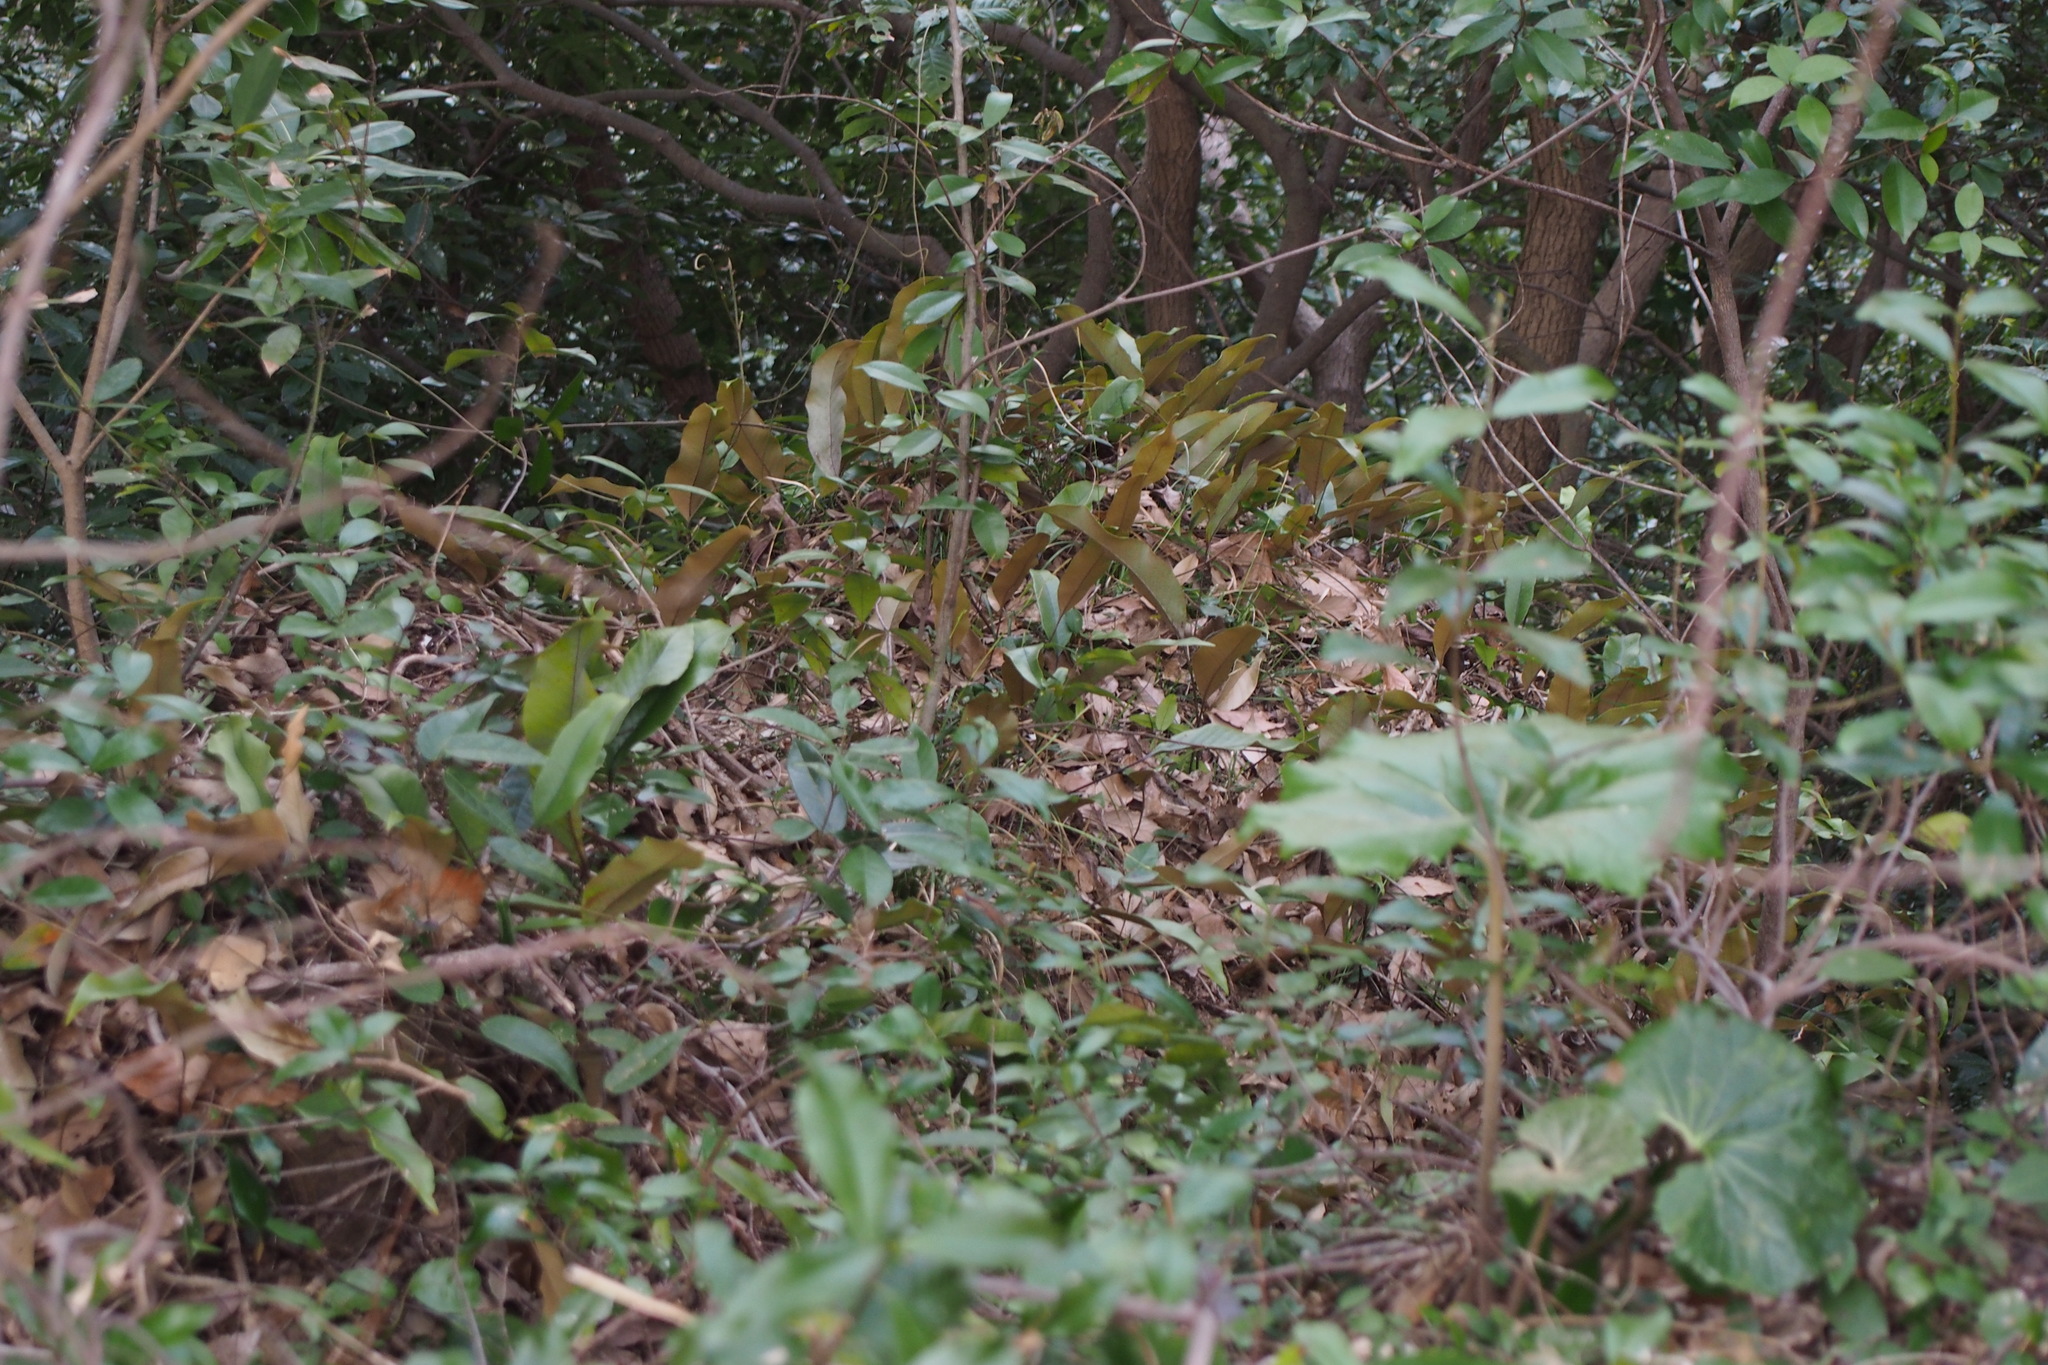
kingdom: Plantae
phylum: Tracheophyta
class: Polypodiopsida
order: Polypodiales
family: Polypodiaceae
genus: Pyrrosia
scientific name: Pyrrosia lingua
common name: Felt fern
